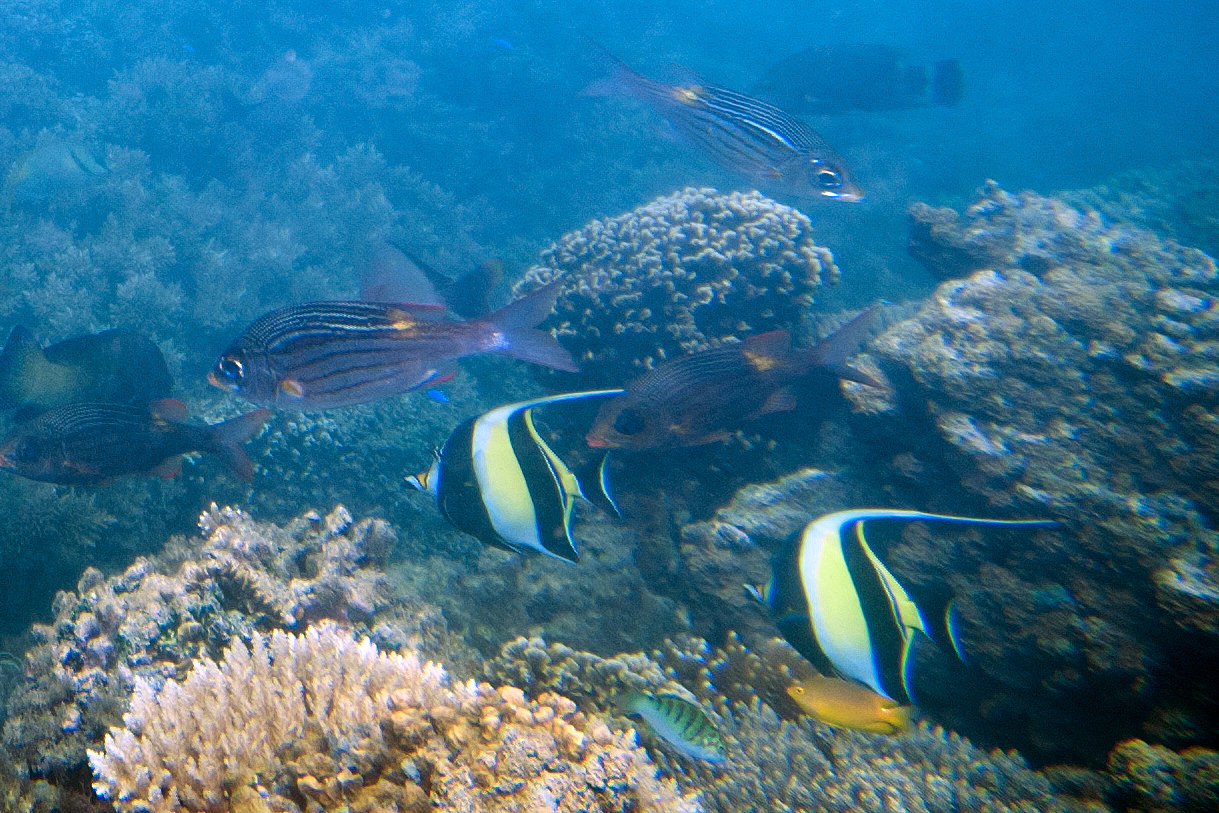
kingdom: Animalia
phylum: Chordata
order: Perciformes
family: Zanclidae
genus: Zanclus
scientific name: Zanclus cornutus
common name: Moorish idol
